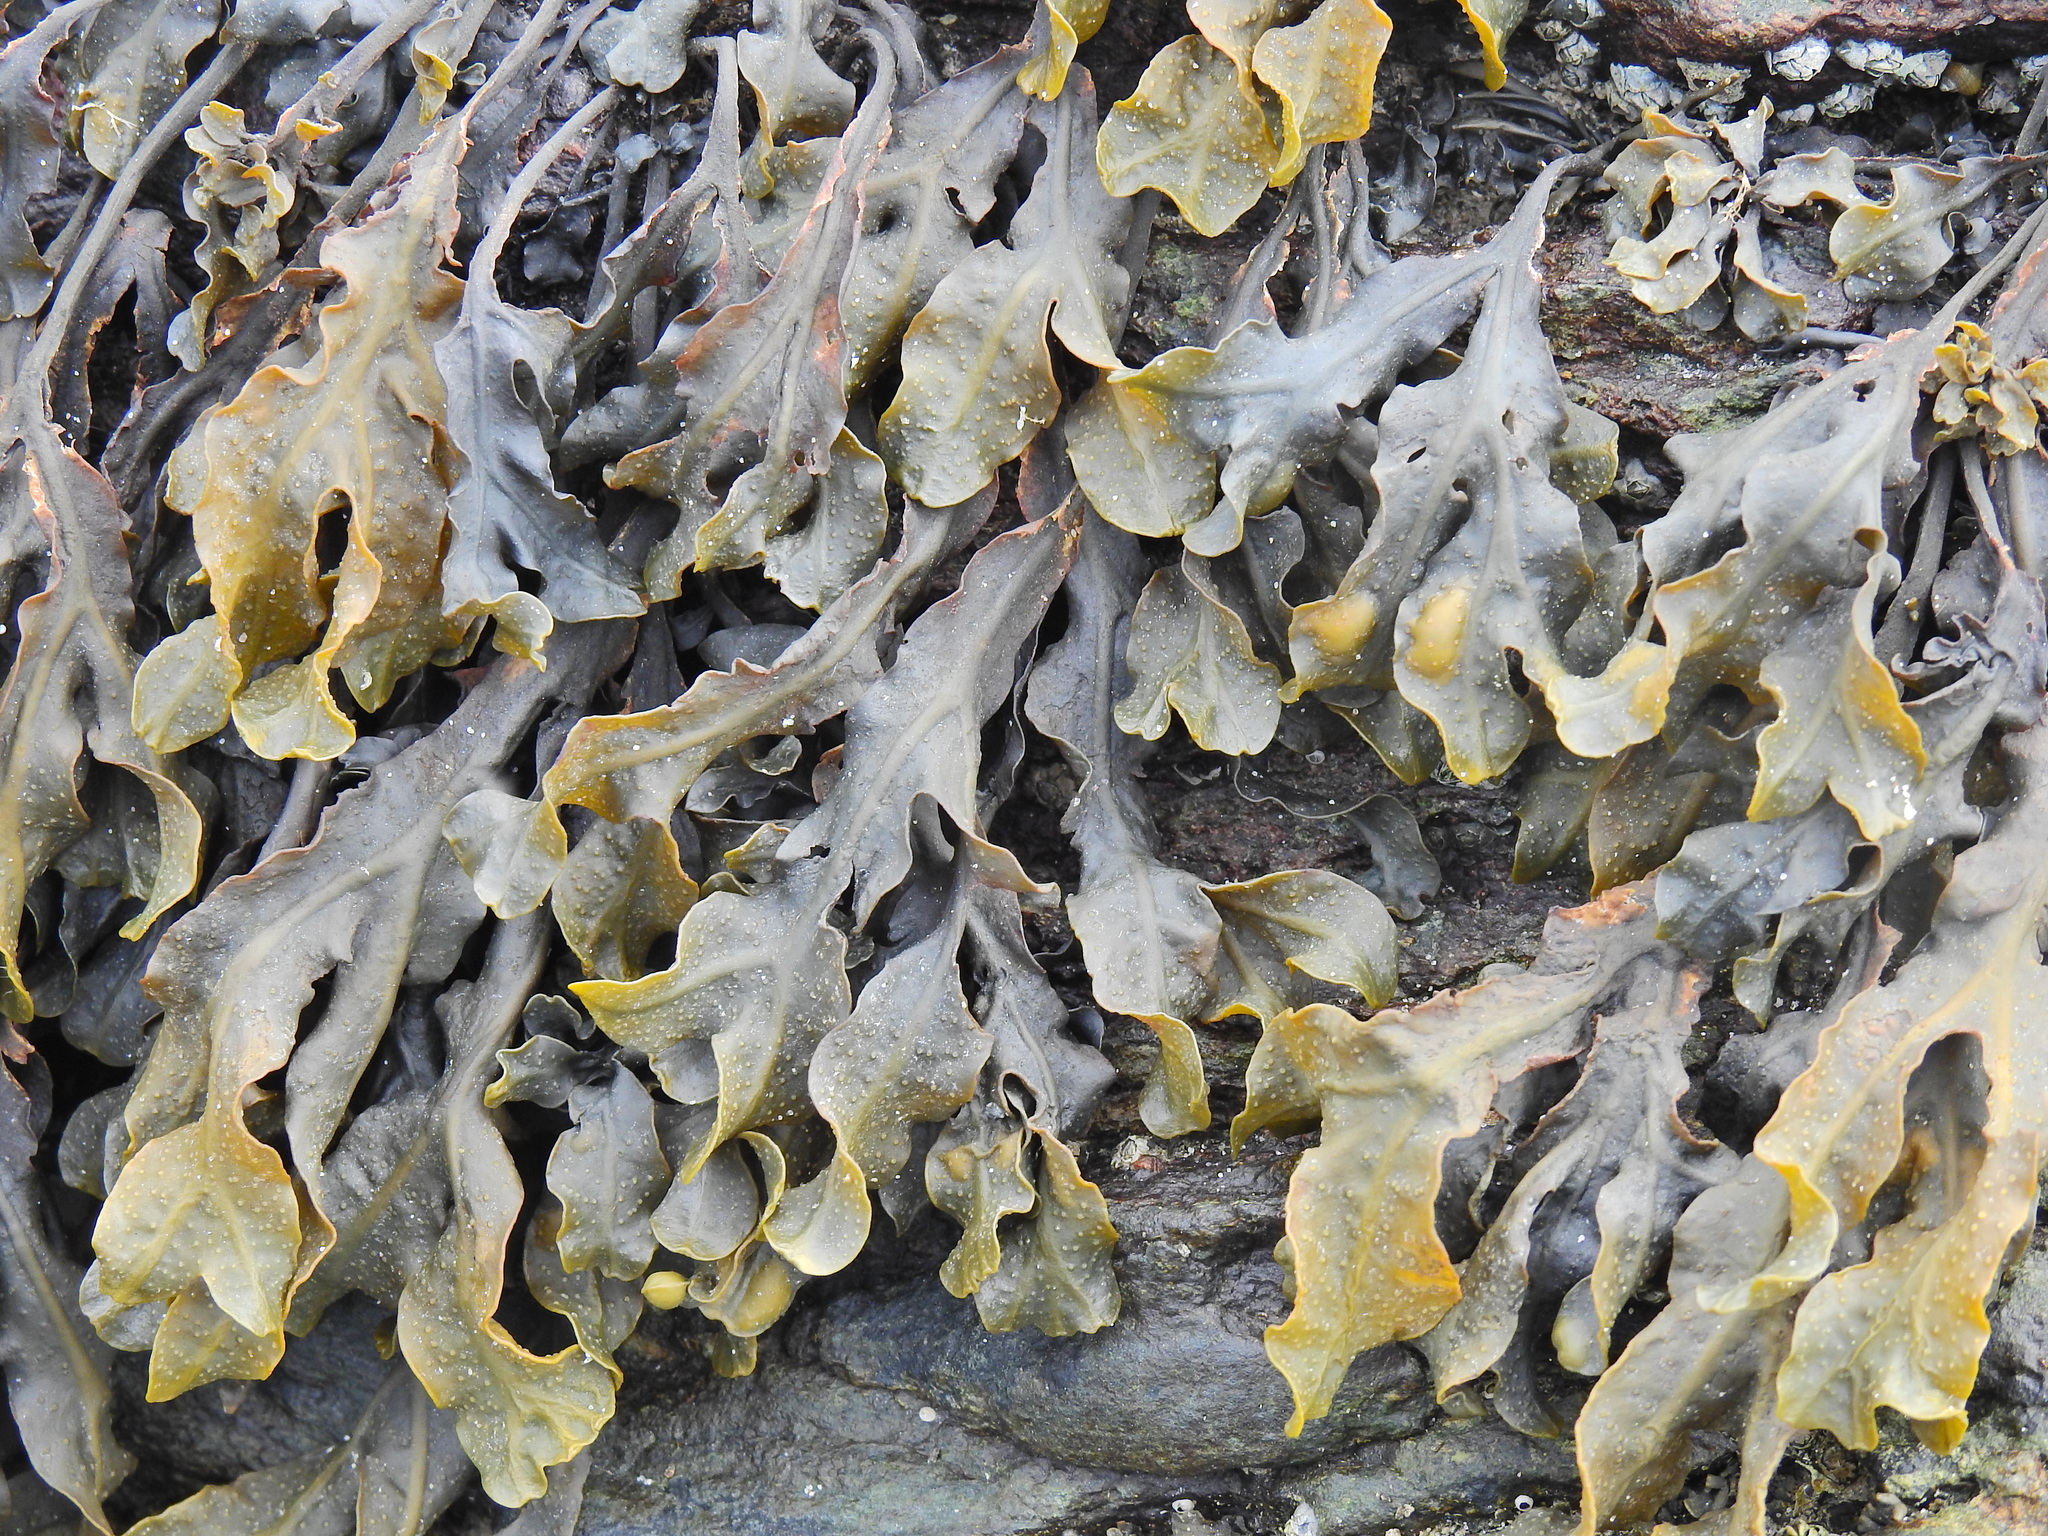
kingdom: Chromista
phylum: Ochrophyta
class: Phaeophyceae
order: Fucales
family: Fucaceae
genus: Fucus
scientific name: Fucus spiralis
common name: Spiral wrack
